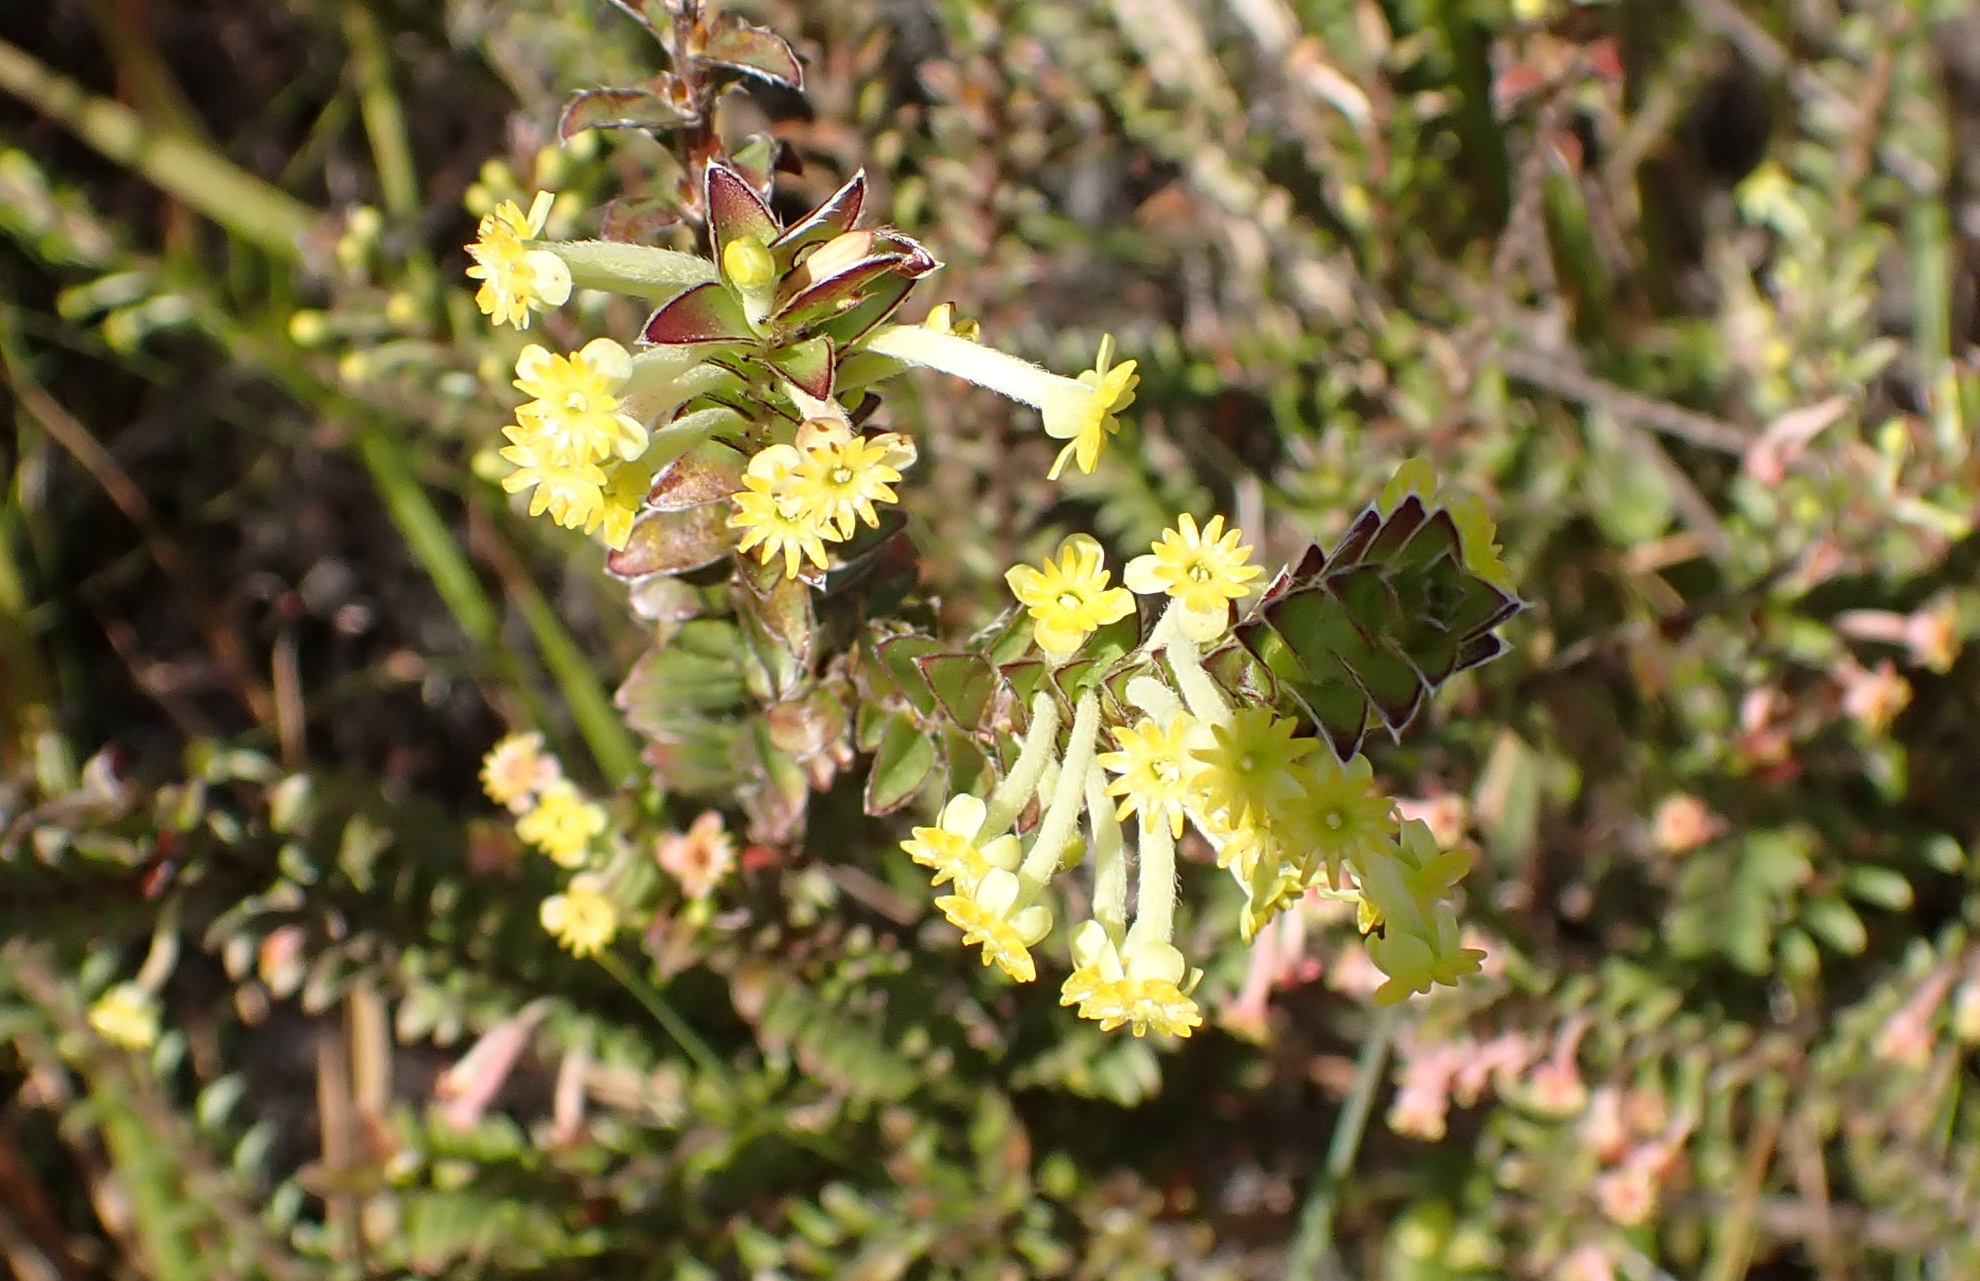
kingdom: Plantae
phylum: Tracheophyta
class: Magnoliopsida
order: Malvales
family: Thymelaeaceae
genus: Struthiola
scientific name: Struthiola argentea
